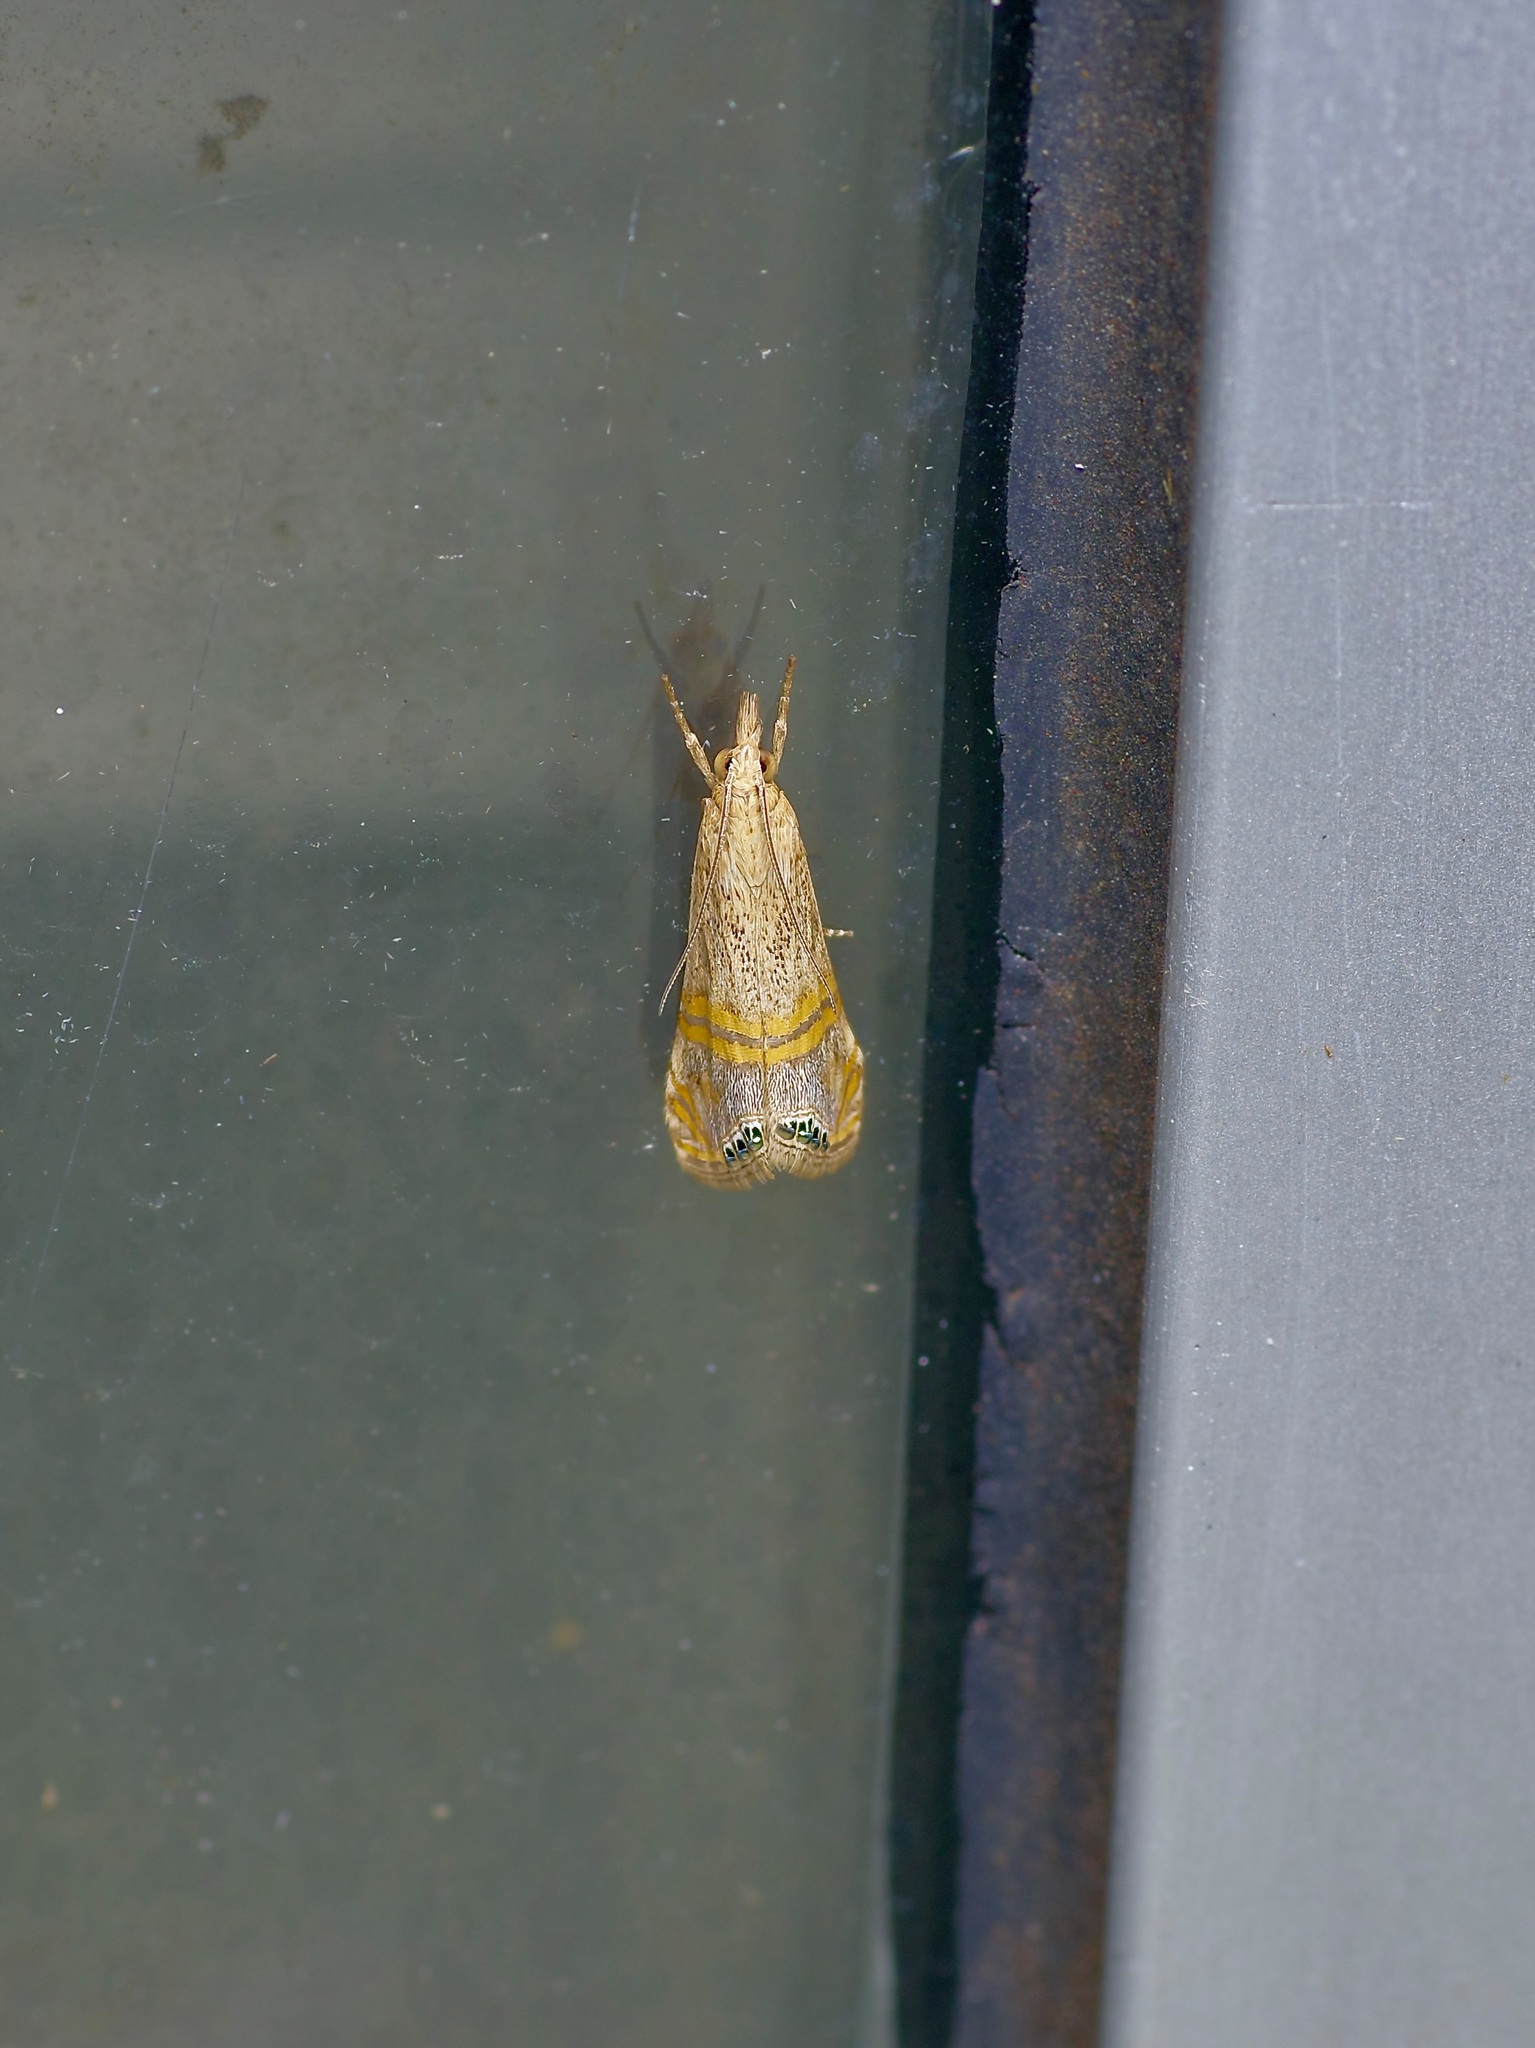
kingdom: Animalia
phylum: Arthropoda
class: Insecta
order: Lepidoptera
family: Crambidae
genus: Euchromius
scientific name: Euchromius ocellea
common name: Necklace veneer moth
